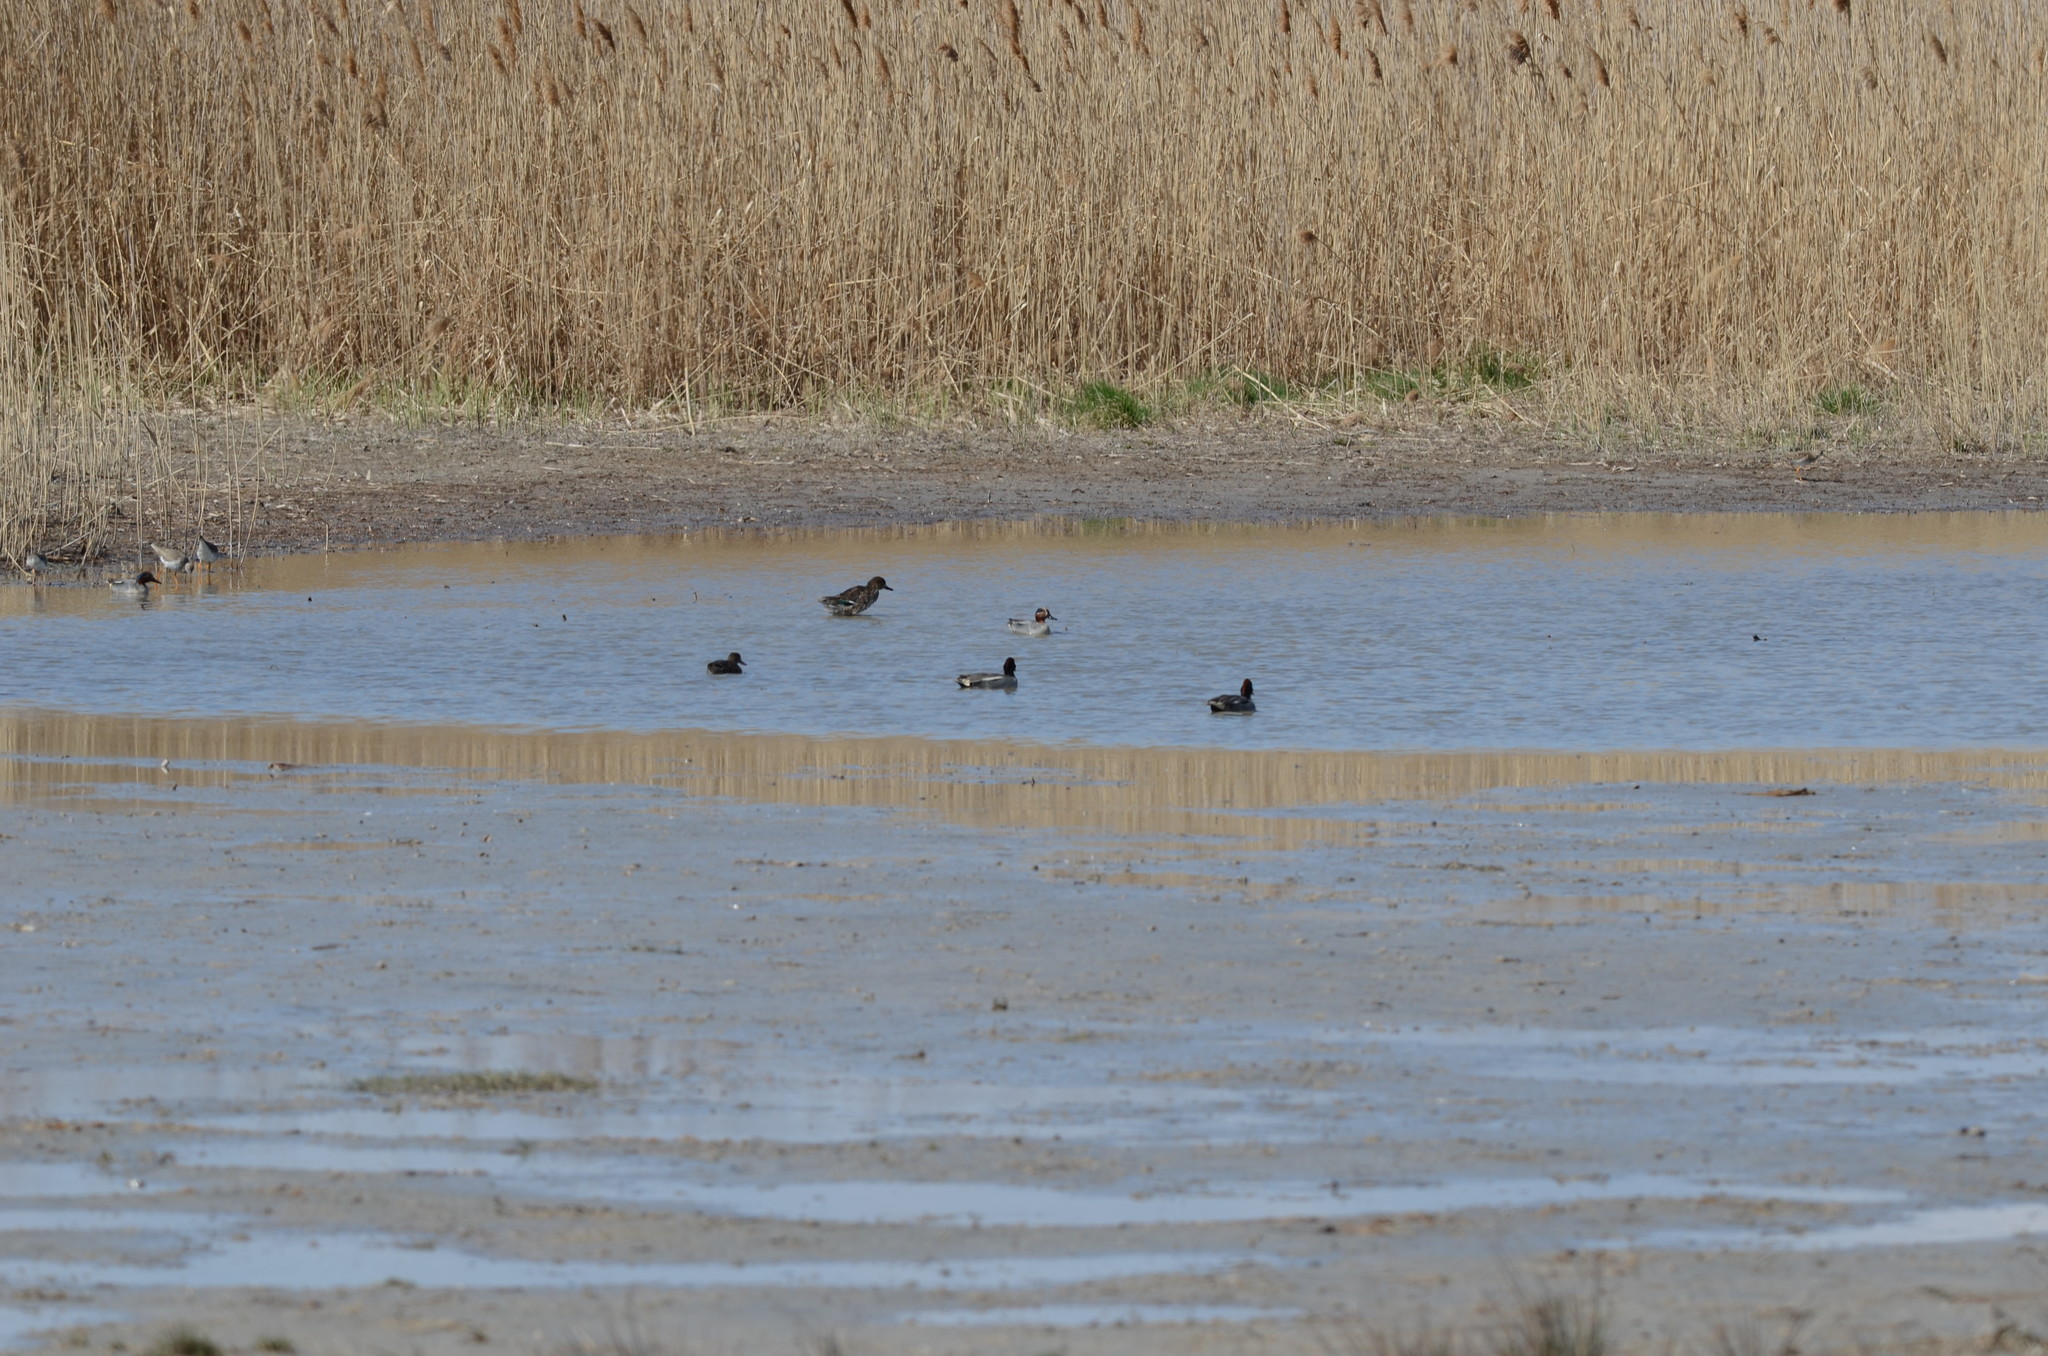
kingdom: Animalia
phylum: Chordata
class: Aves
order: Anseriformes
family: Anatidae
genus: Anas
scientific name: Anas crecca
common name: Eurasian teal
